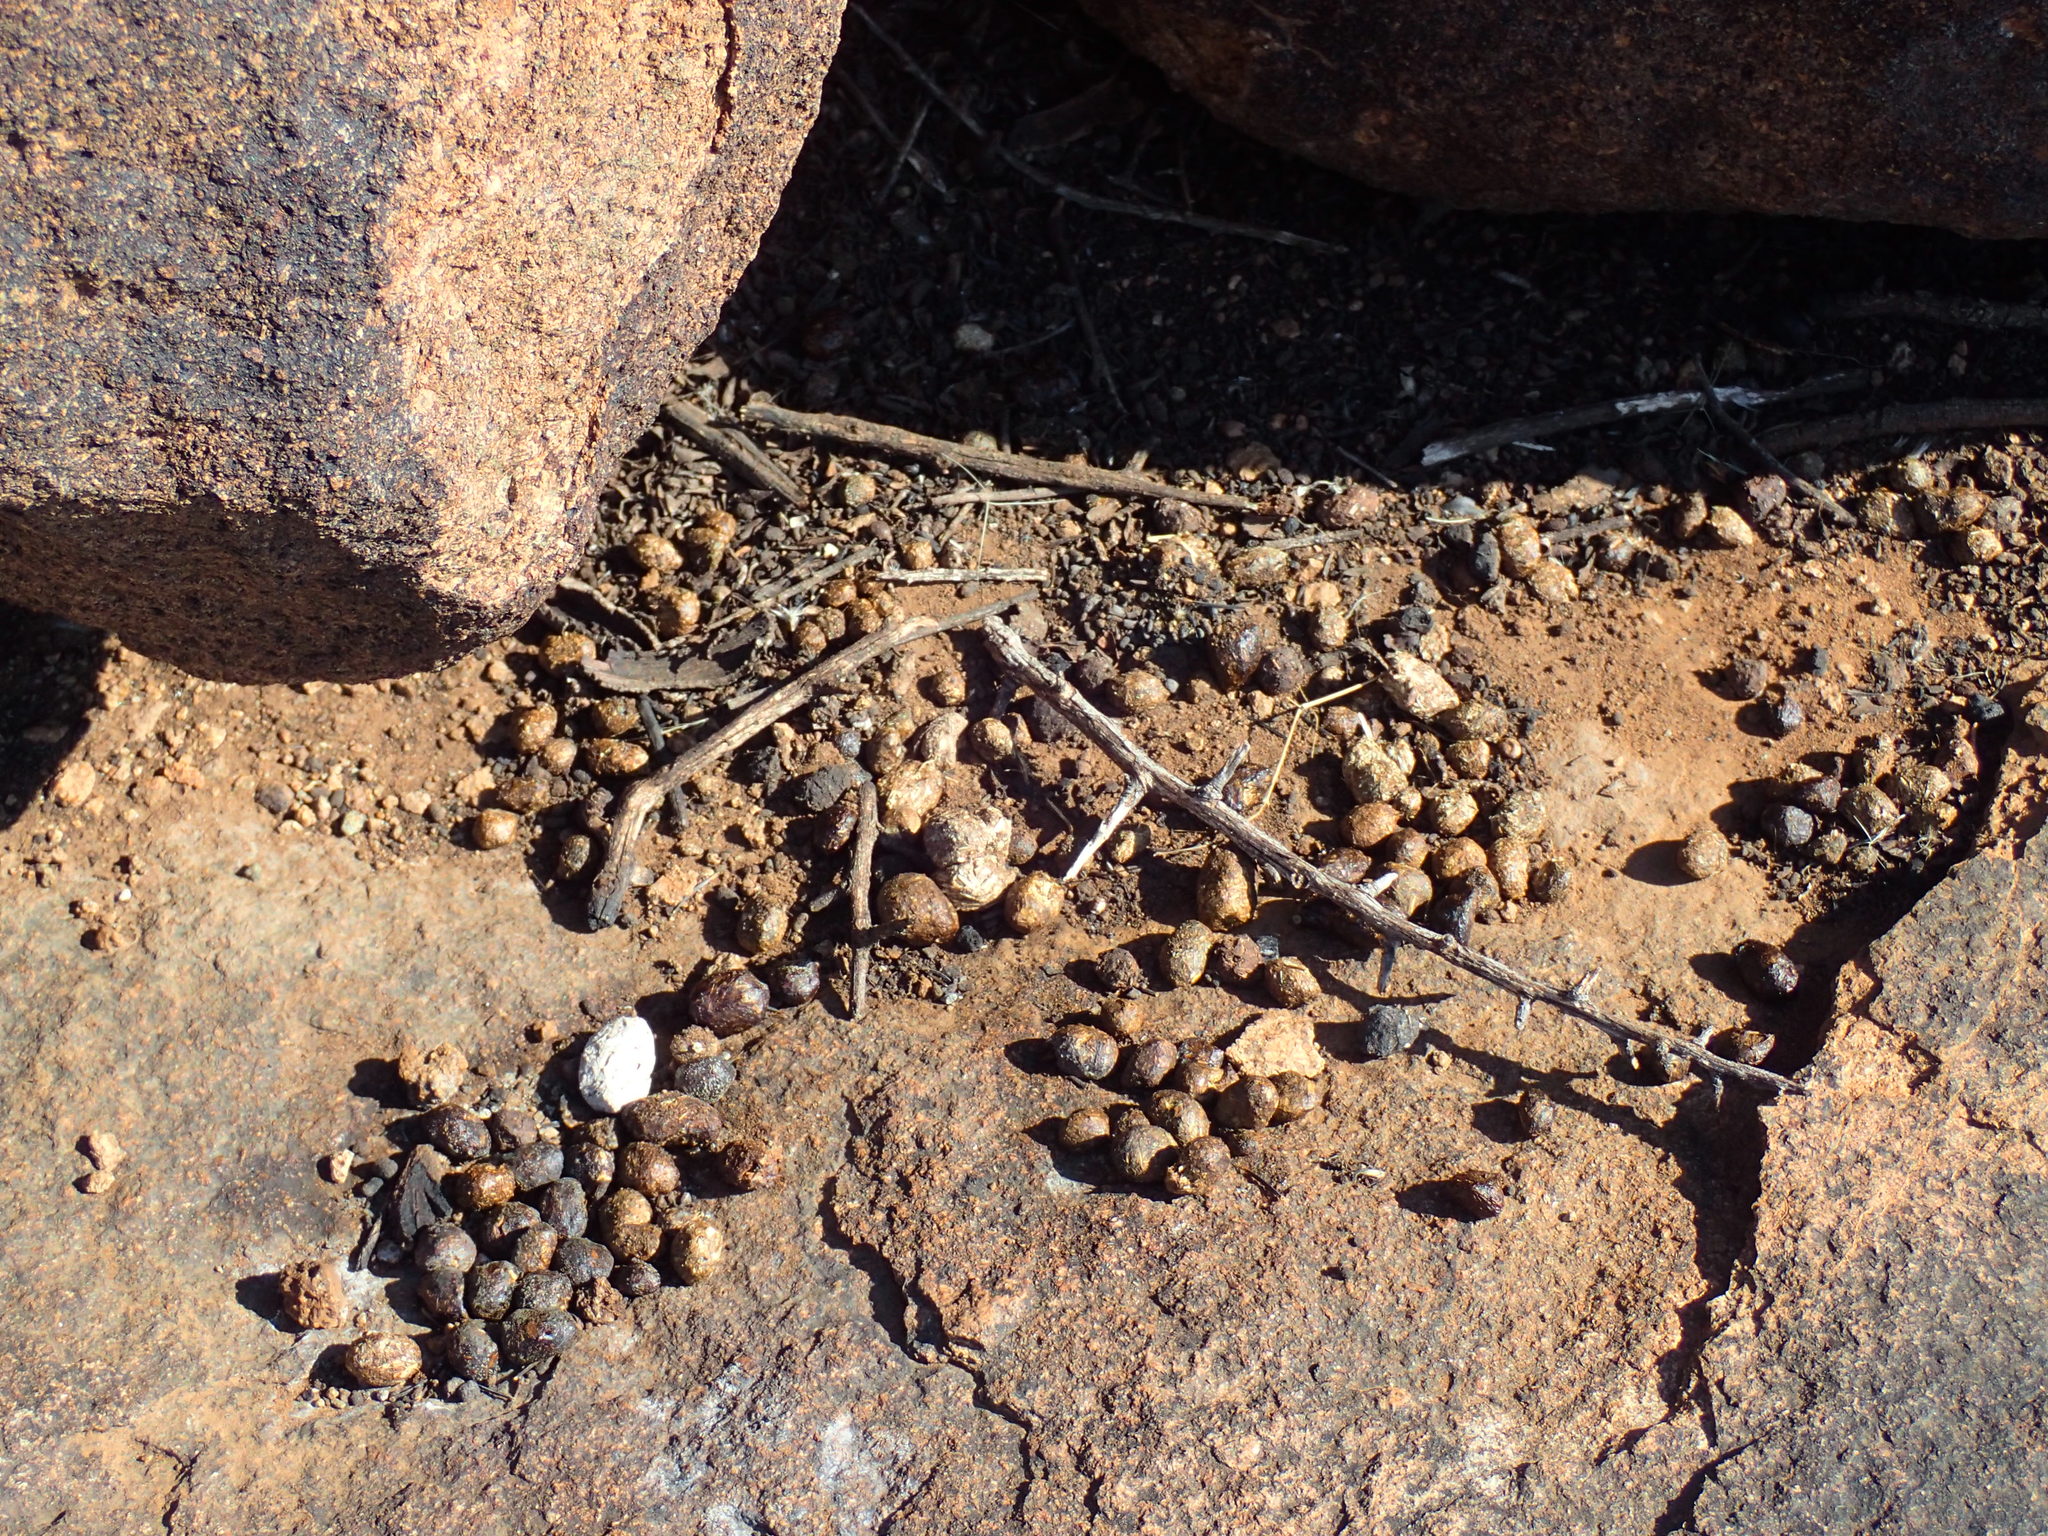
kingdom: Animalia
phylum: Chordata
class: Mammalia
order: Hyracoidea
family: Procaviidae
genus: Procavia
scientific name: Procavia capensis
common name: Rock hyrax
